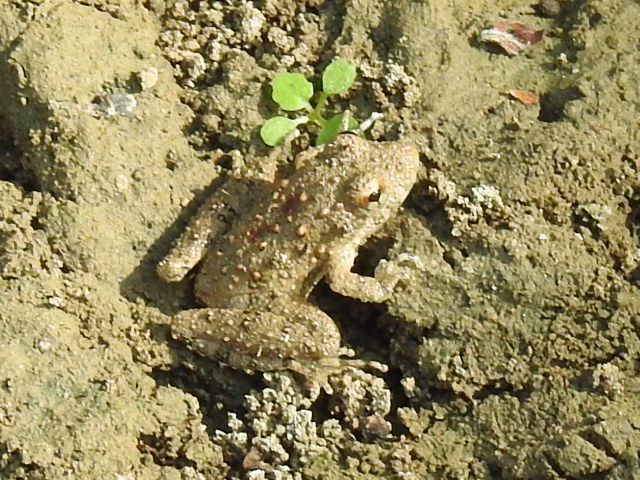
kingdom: Animalia
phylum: Chordata
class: Amphibia
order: Anura
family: Hylidae
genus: Acris
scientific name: Acris blanchardi
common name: Blanchard's cricket frog
